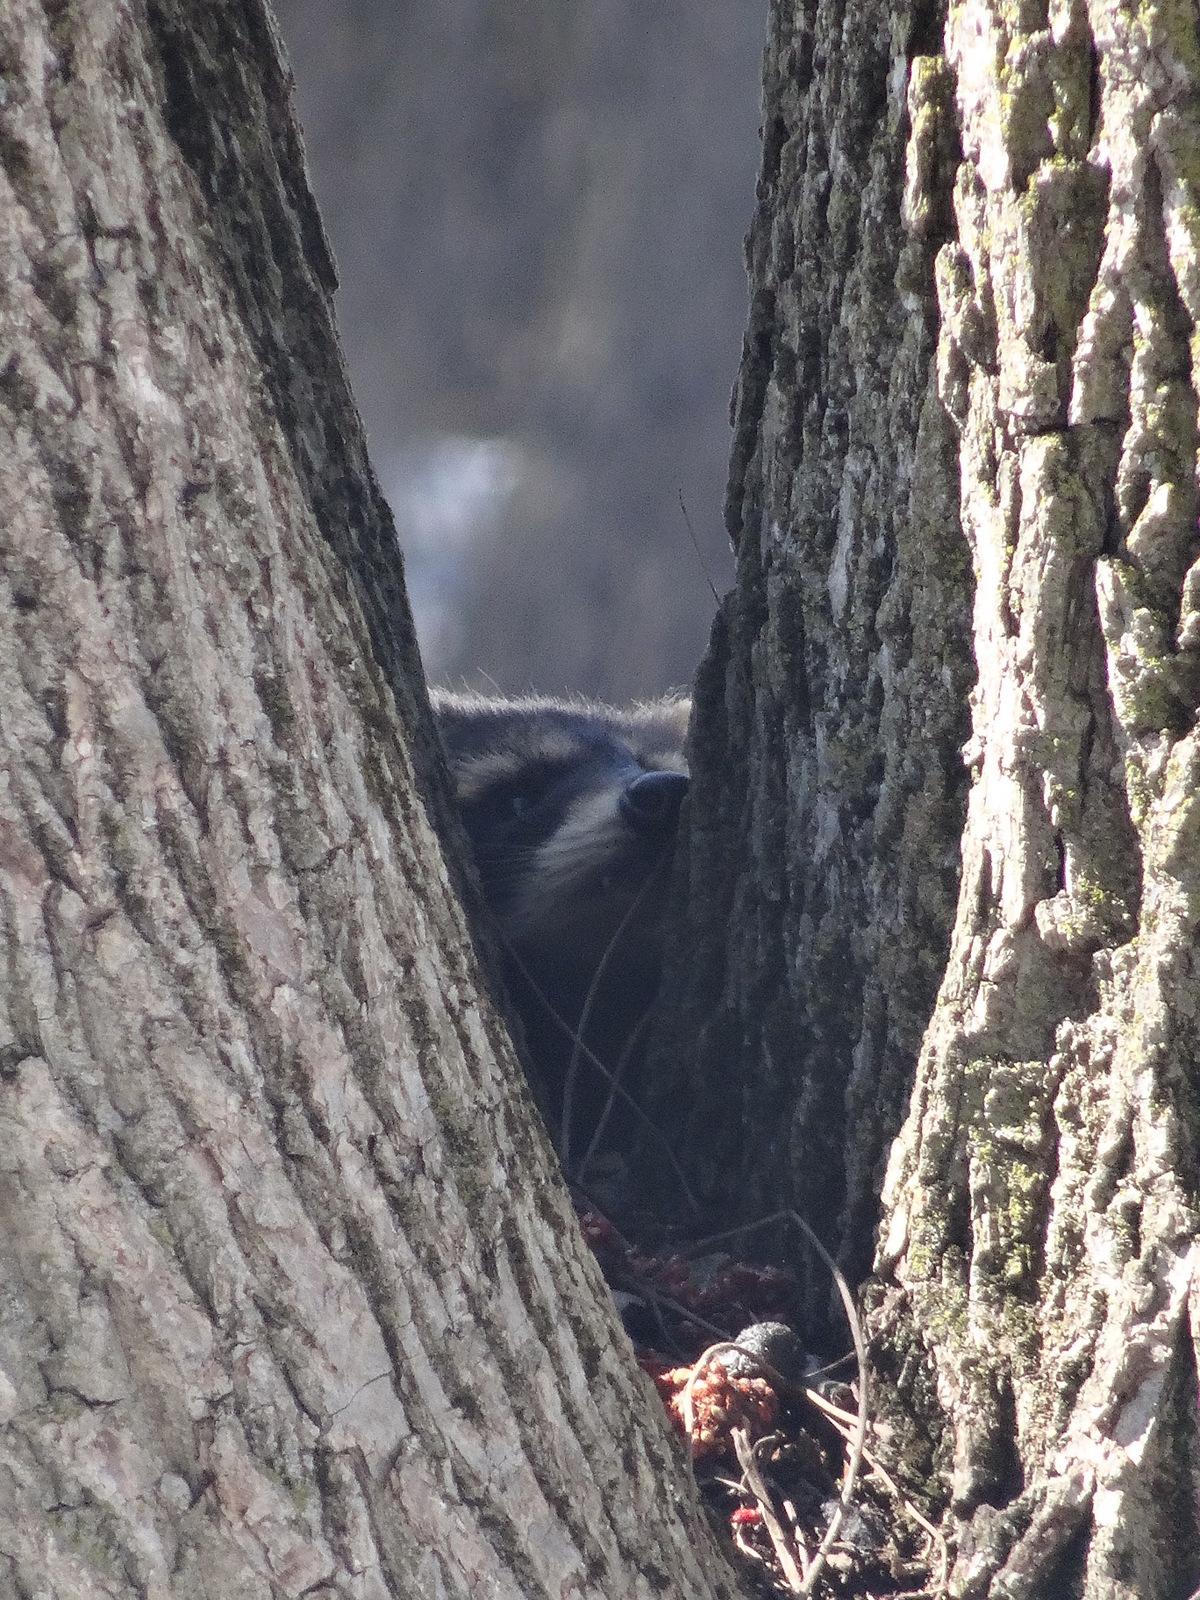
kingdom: Animalia
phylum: Chordata
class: Mammalia
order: Carnivora
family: Procyonidae
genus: Procyon
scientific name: Procyon lotor
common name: Raccoon
